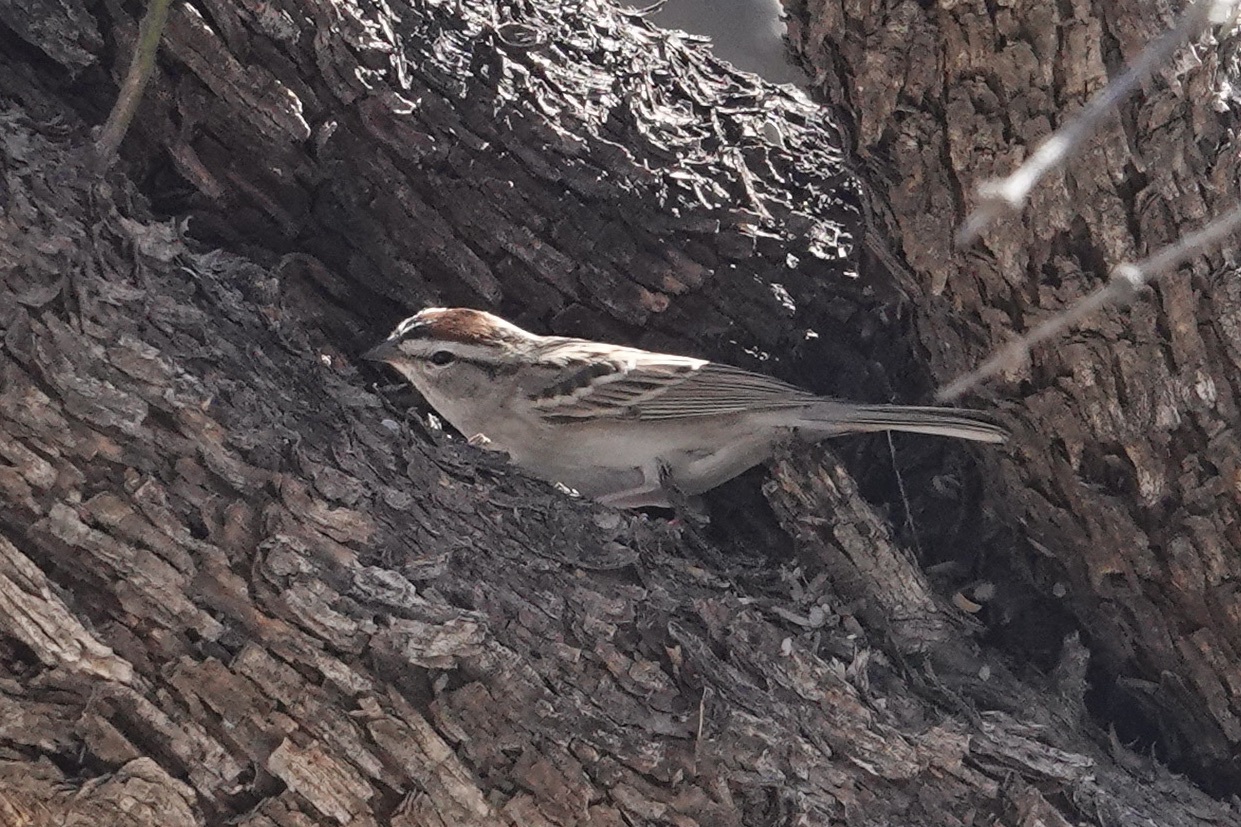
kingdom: Animalia
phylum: Chordata
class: Aves
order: Passeriformes
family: Passerellidae
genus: Spizella
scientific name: Spizella passerina
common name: Chipping sparrow
